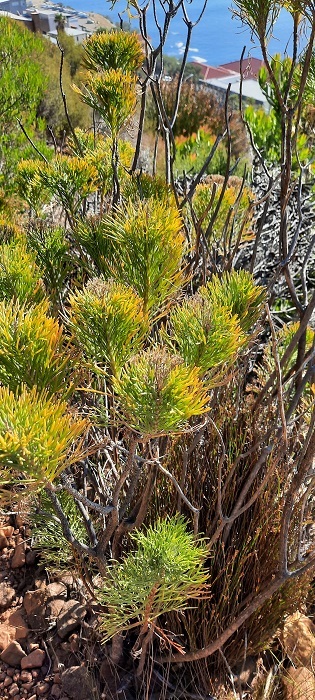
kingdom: Plantae
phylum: Tracheophyta
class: Magnoliopsida
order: Asterales
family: Asteraceae
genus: Hymenolepis
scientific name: Hymenolepis crithmifolia
